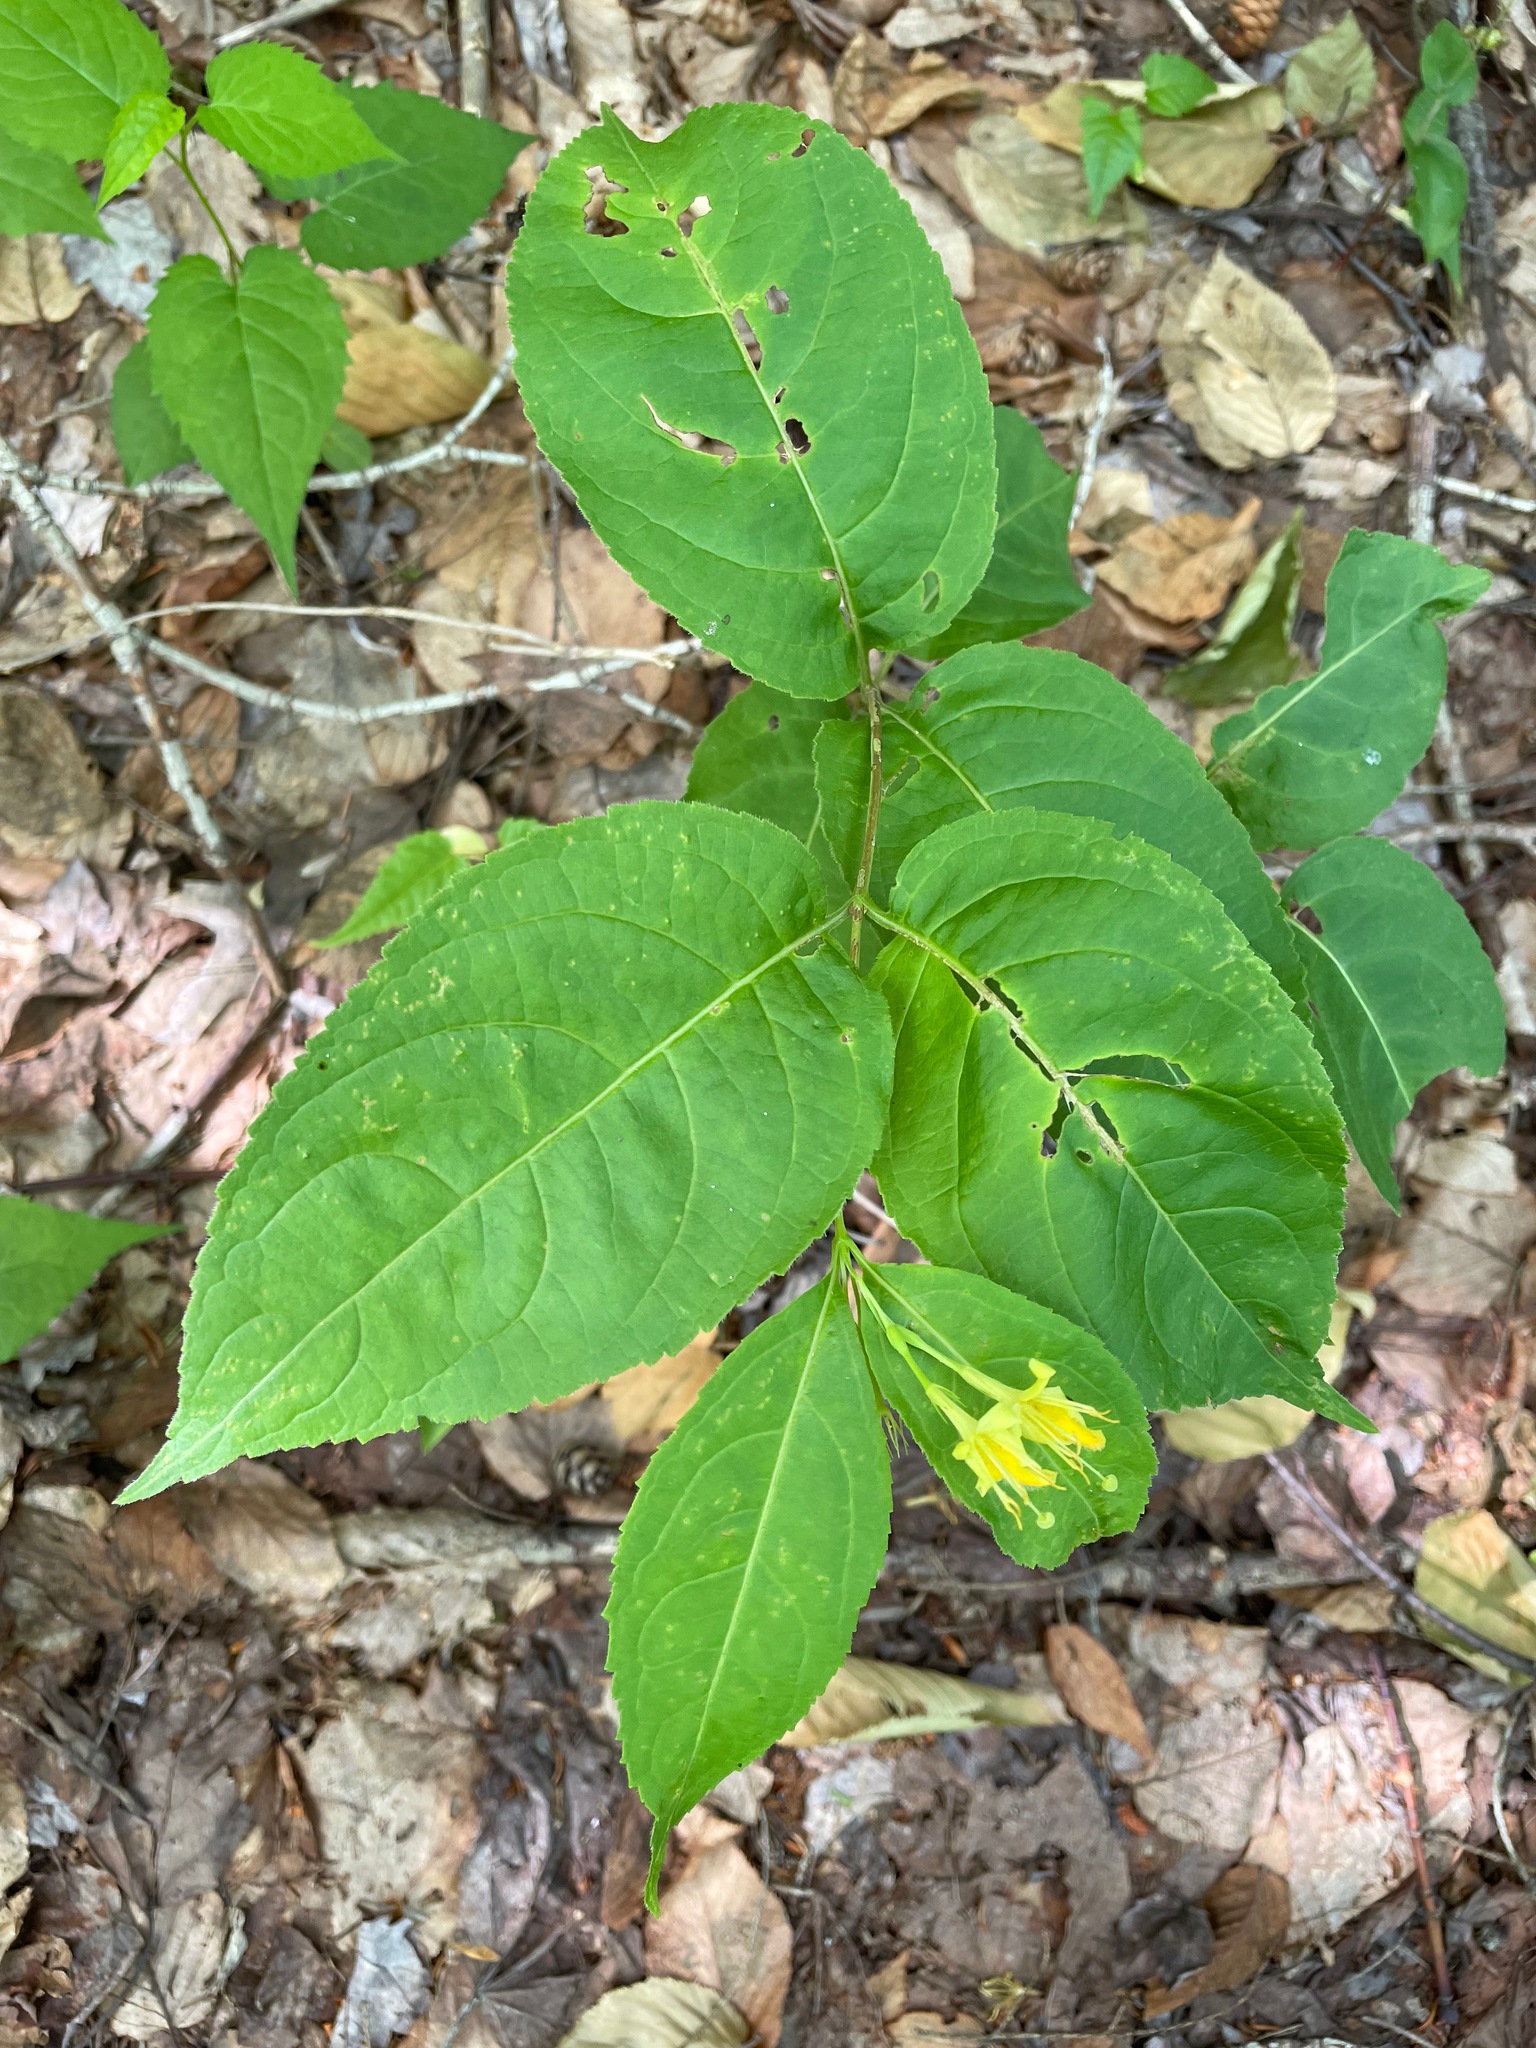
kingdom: Plantae
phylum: Tracheophyta
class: Magnoliopsida
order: Dipsacales
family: Caprifoliaceae
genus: Diervilla
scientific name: Diervilla lonicera
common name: Bush-honeysuckle
